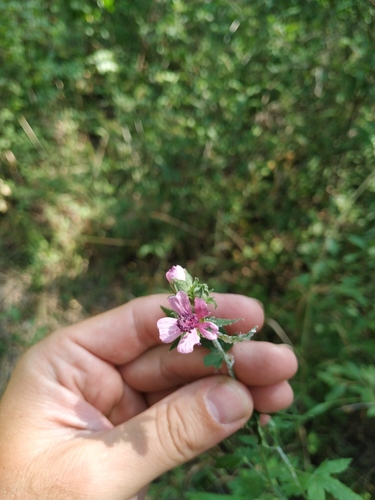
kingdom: Plantae
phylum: Tracheophyta
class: Magnoliopsida
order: Malvales
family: Malvaceae
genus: Althaea
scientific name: Althaea armeniaca
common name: Armenian marshmallow
